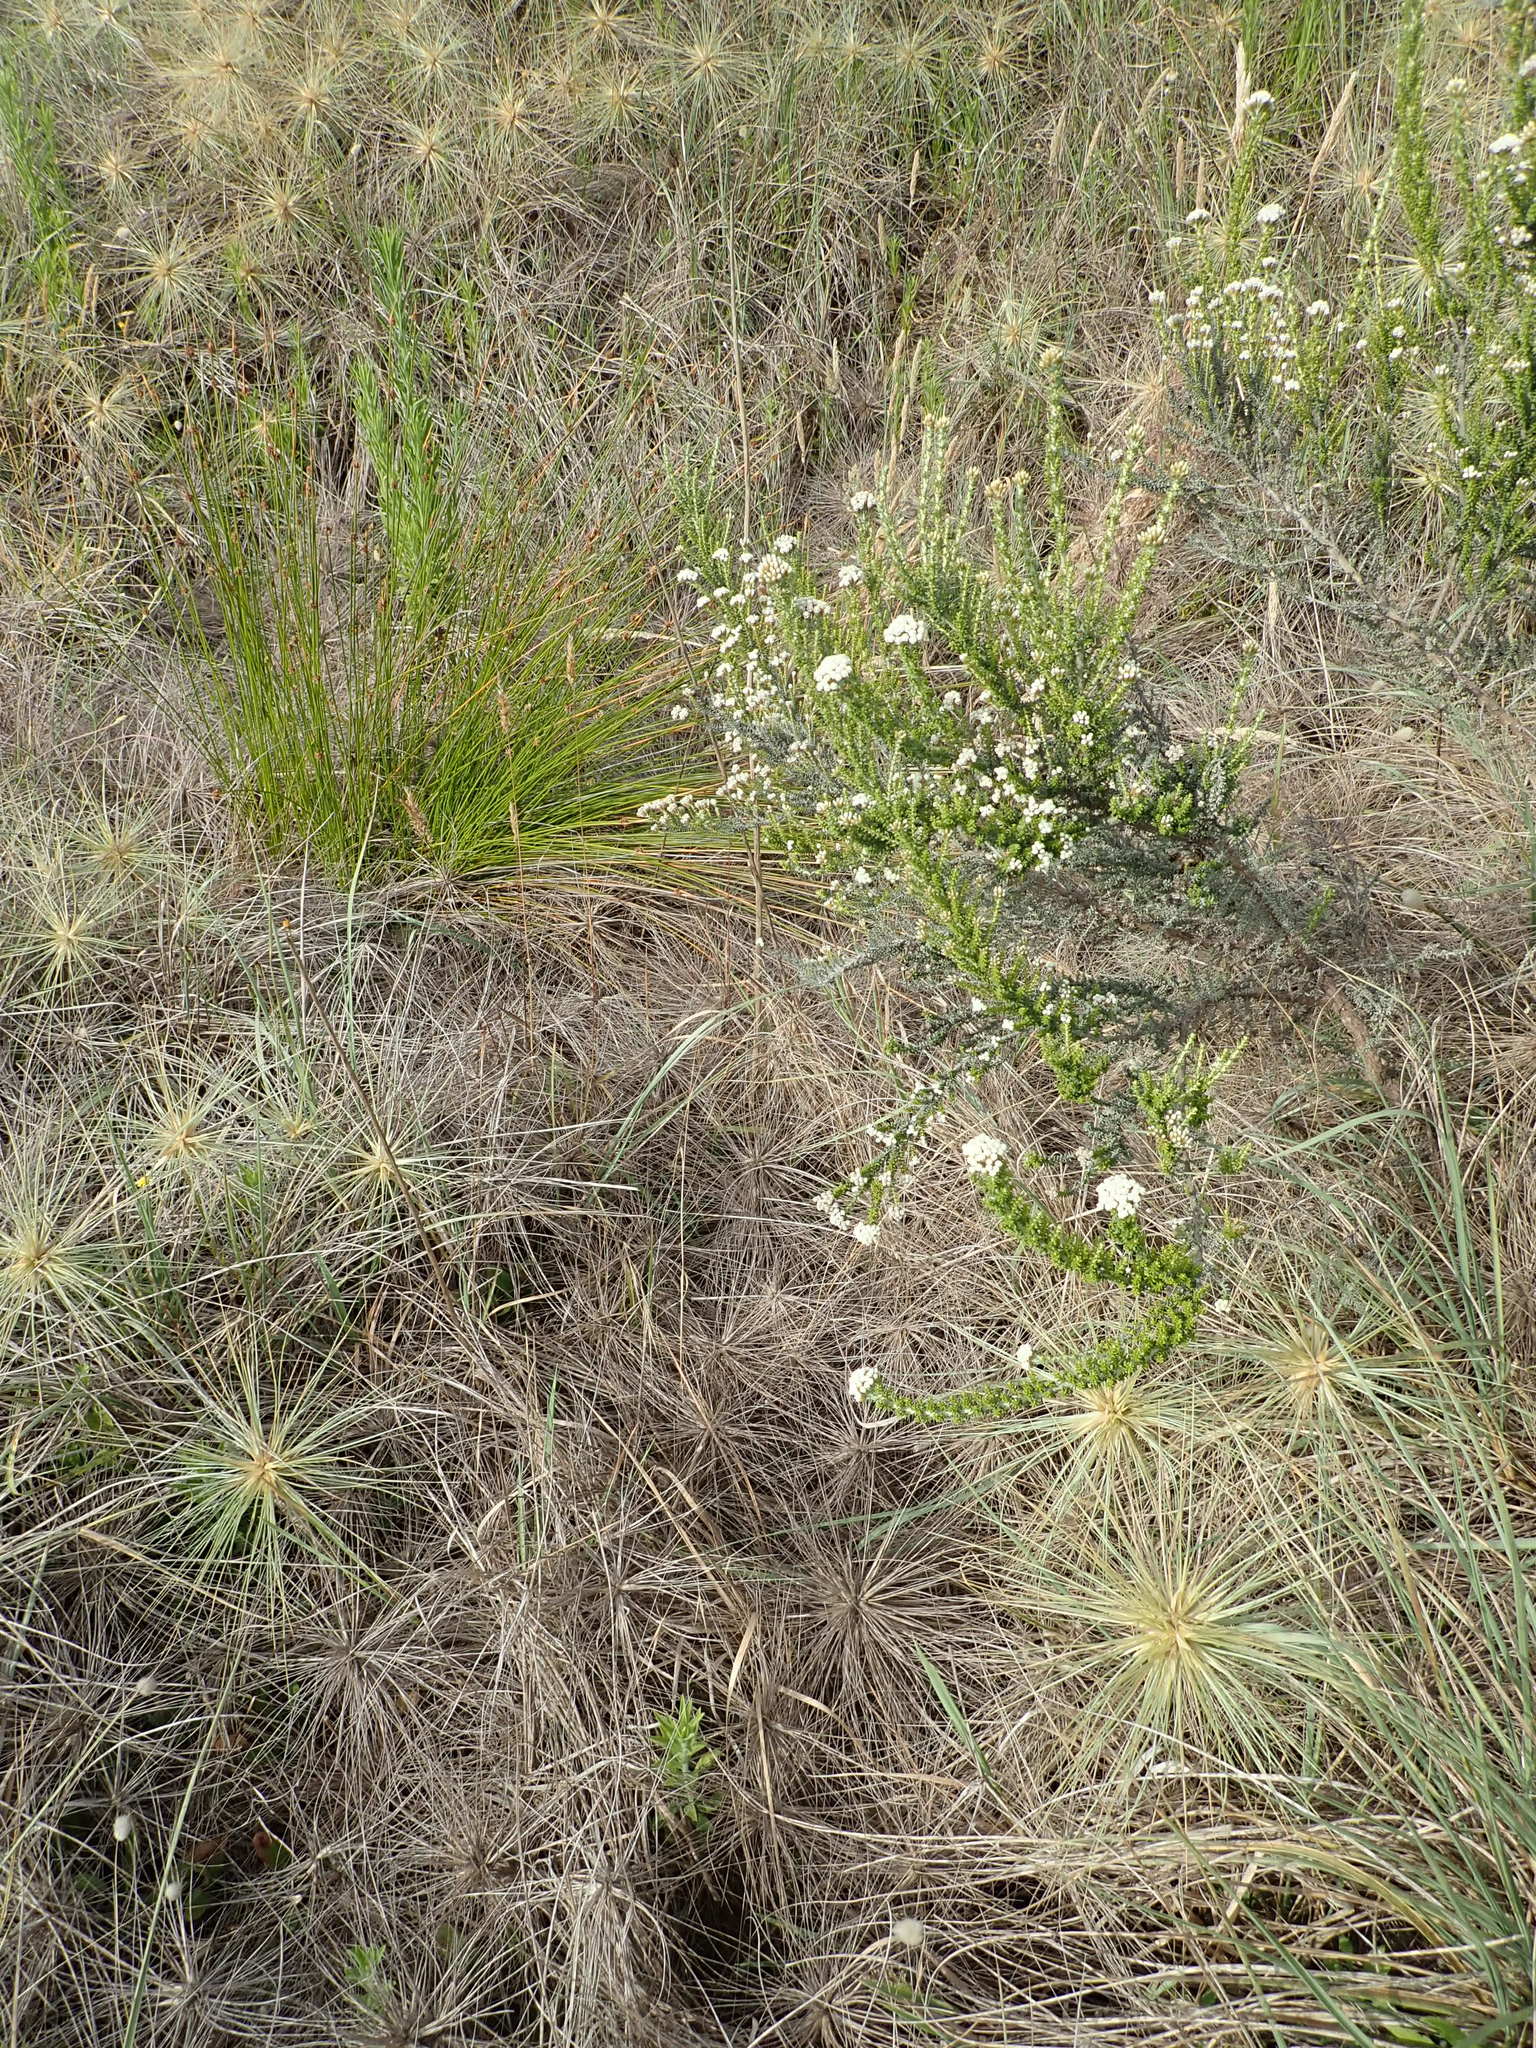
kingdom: Plantae
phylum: Tracheophyta
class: Magnoliopsida
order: Asterales
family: Asteraceae
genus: Ozothamnus
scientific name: Ozothamnus leptophyllus
